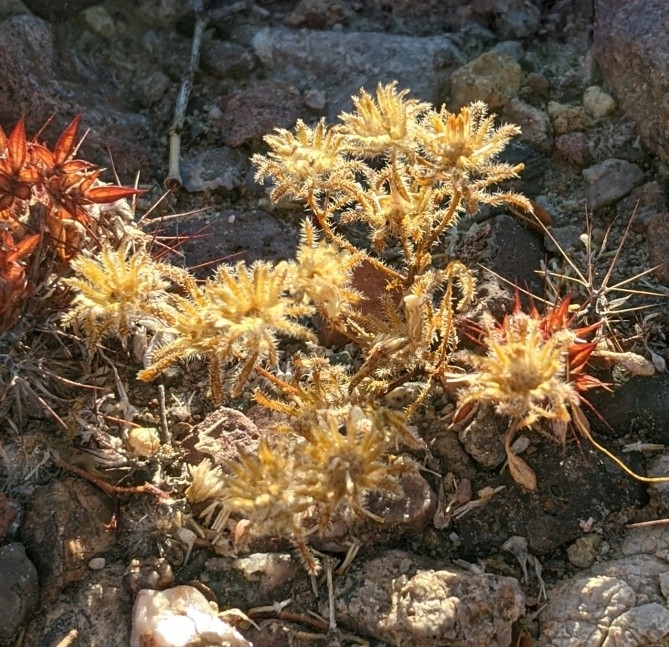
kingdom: Plantae
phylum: Tracheophyta
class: Magnoliopsida
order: Asterales
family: Asteraceae
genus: Monoptilon
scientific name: Monoptilon bellioides
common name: Bristly desertstar
